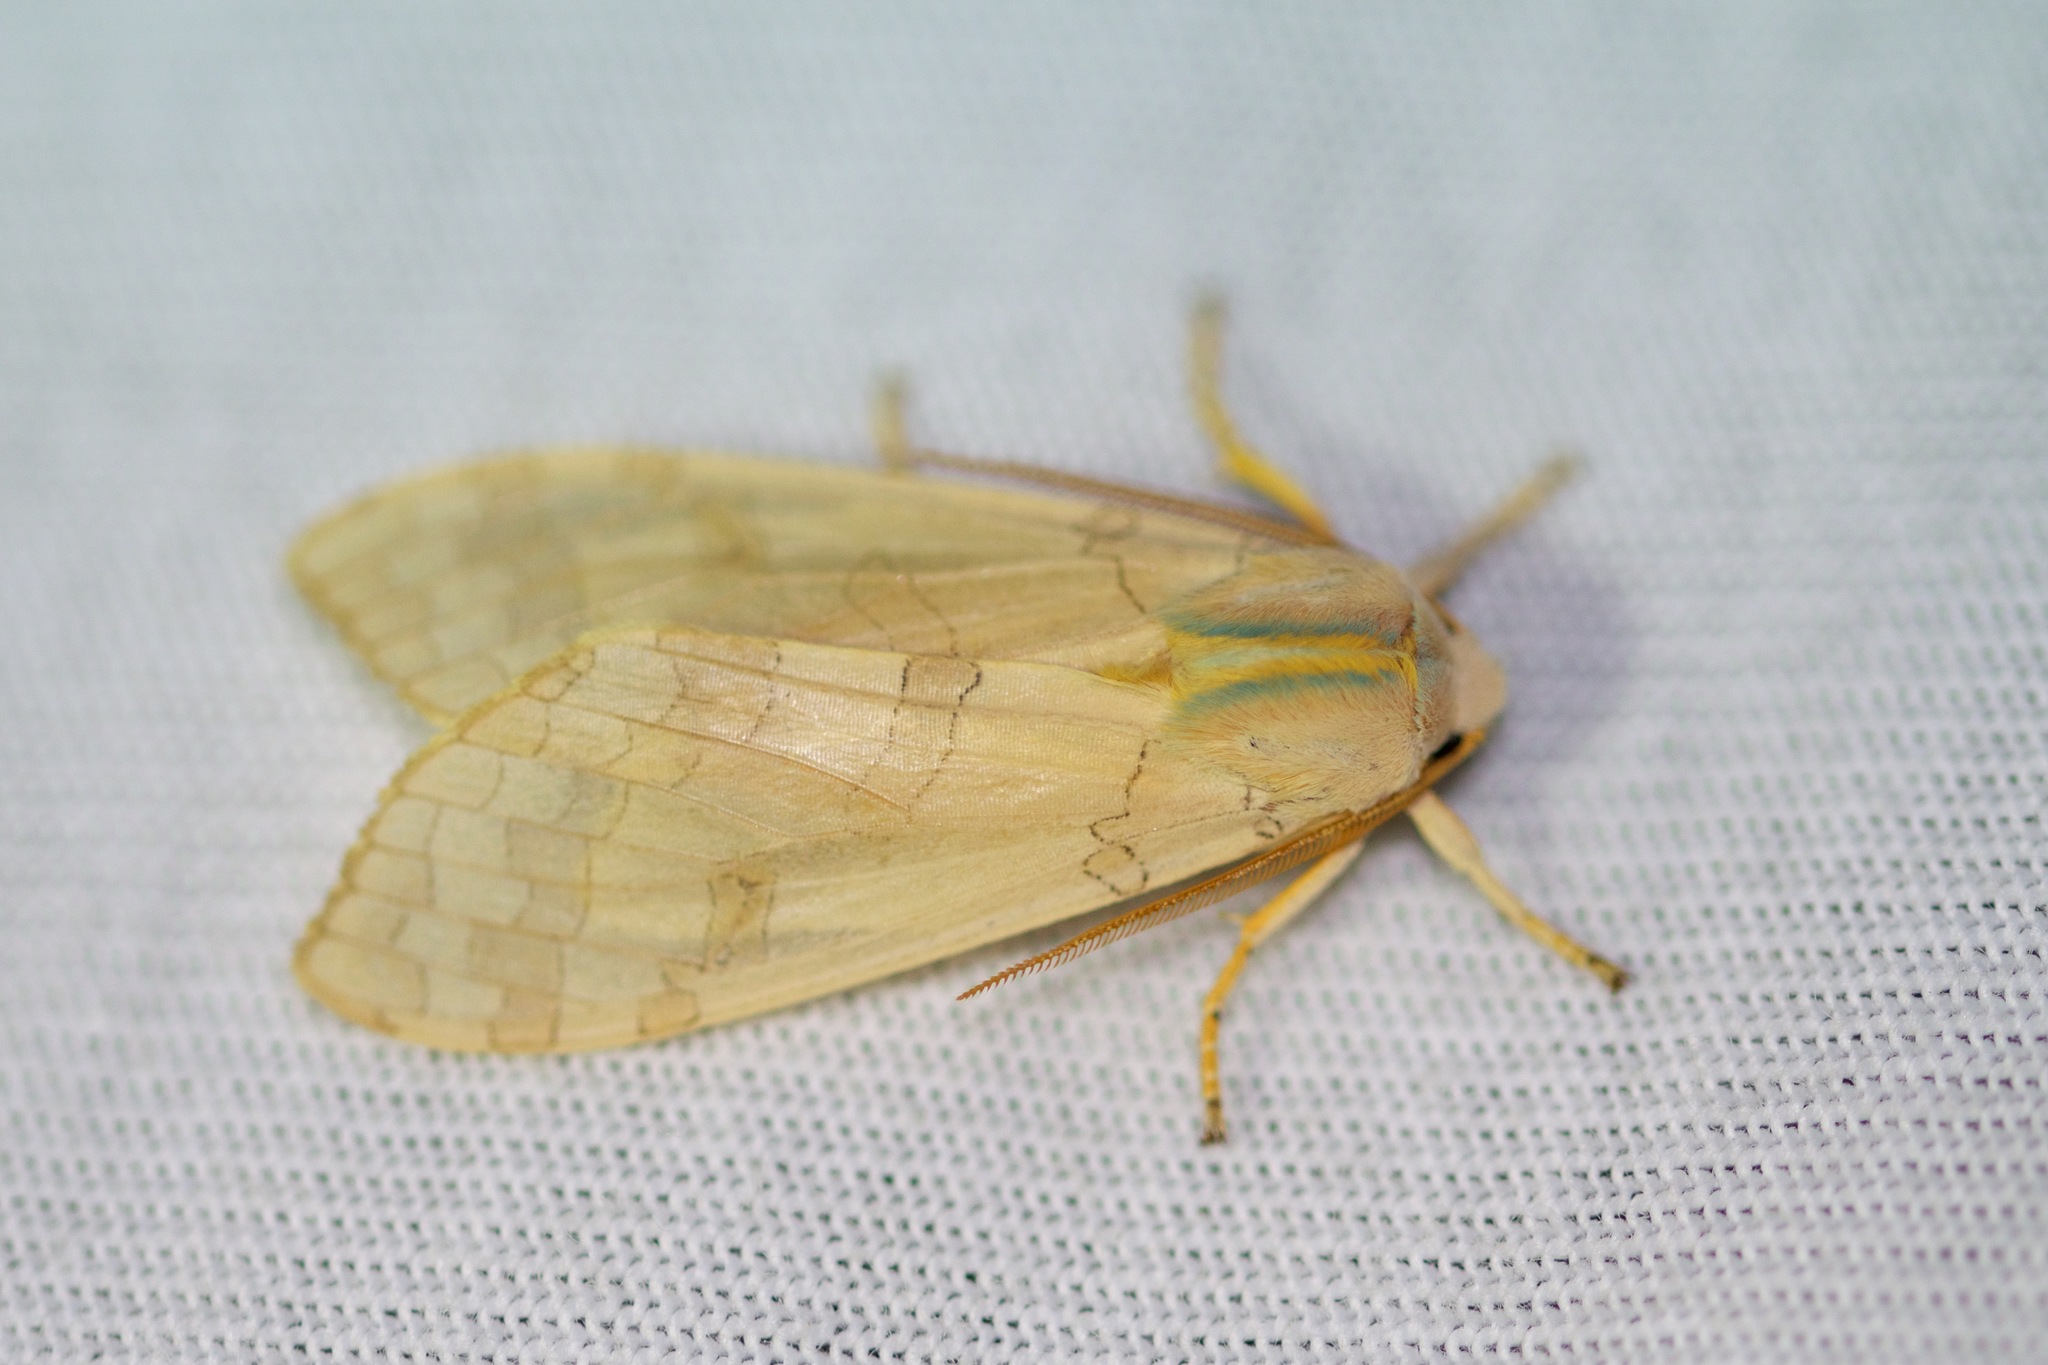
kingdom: Animalia
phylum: Arthropoda
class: Insecta
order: Lepidoptera
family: Erebidae
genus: Halysidota
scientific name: Halysidota tessellaris
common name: Banded tussock moth
